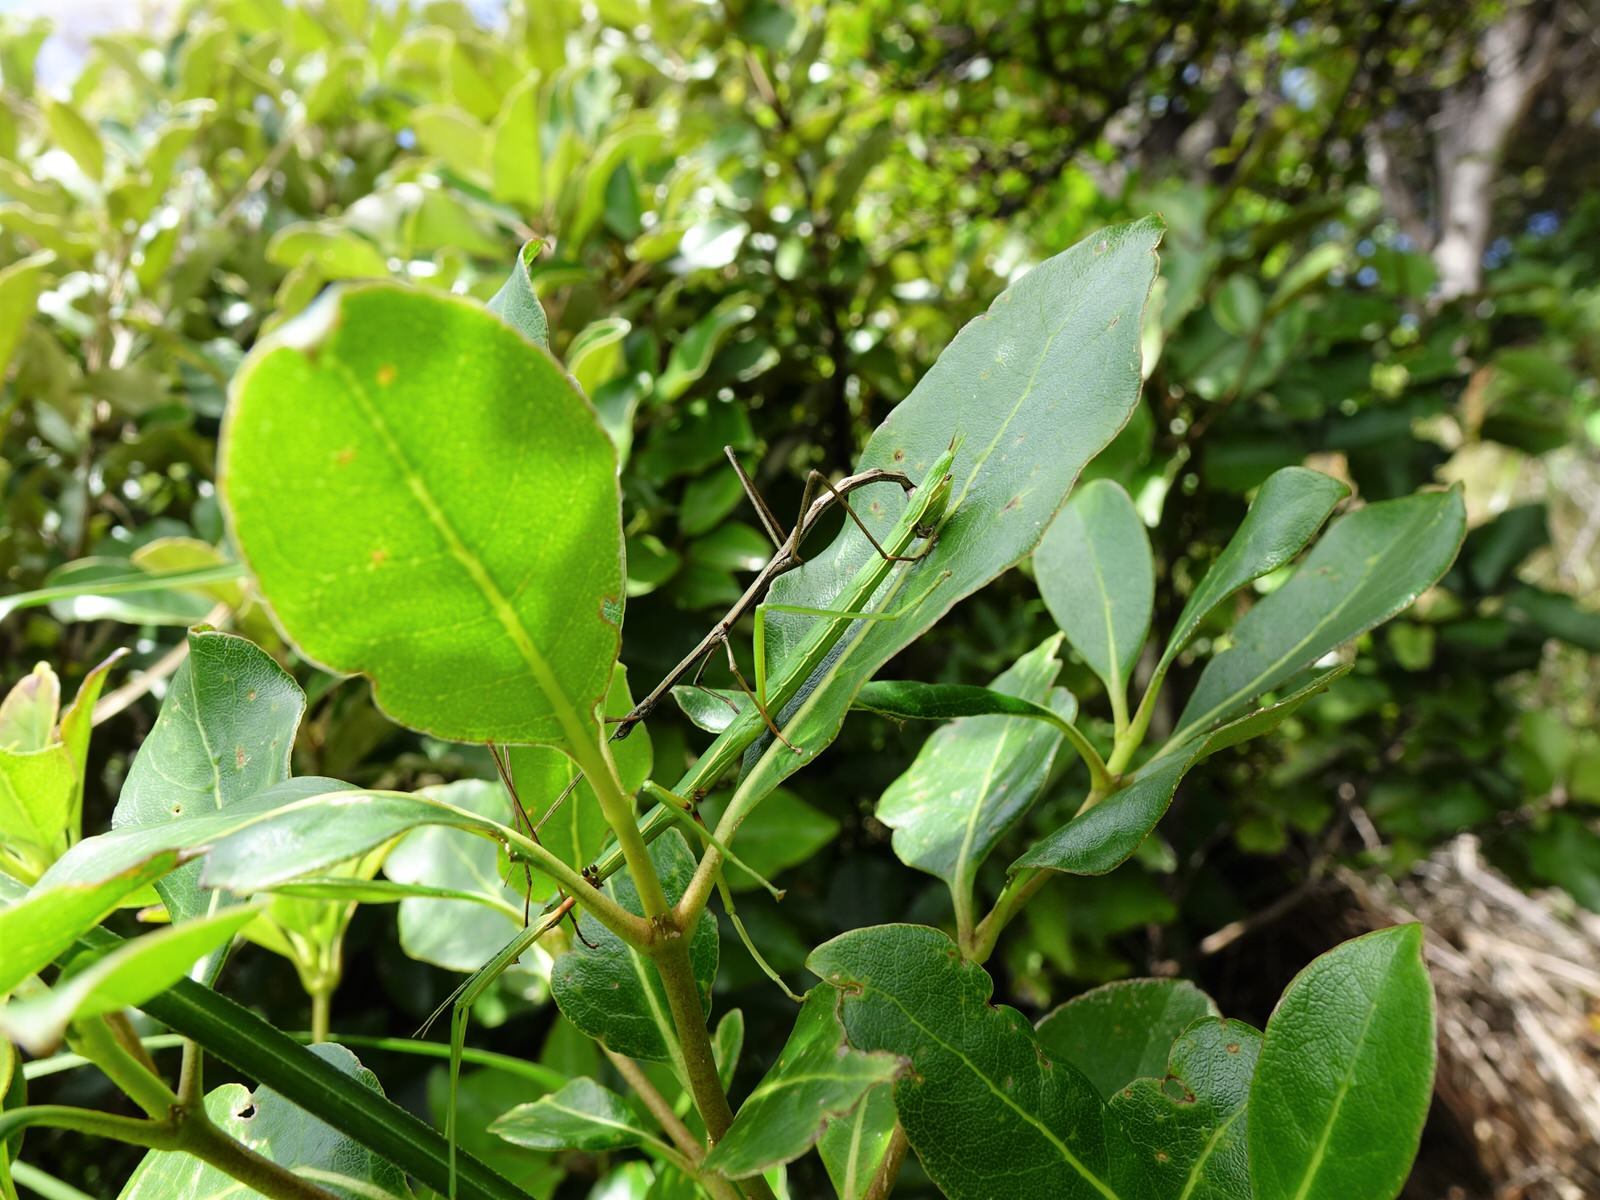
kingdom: Animalia
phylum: Arthropoda
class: Insecta
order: Phasmida
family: Phasmatidae
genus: Clitarchus
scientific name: Clitarchus hookeri
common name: Smooth stick insect
